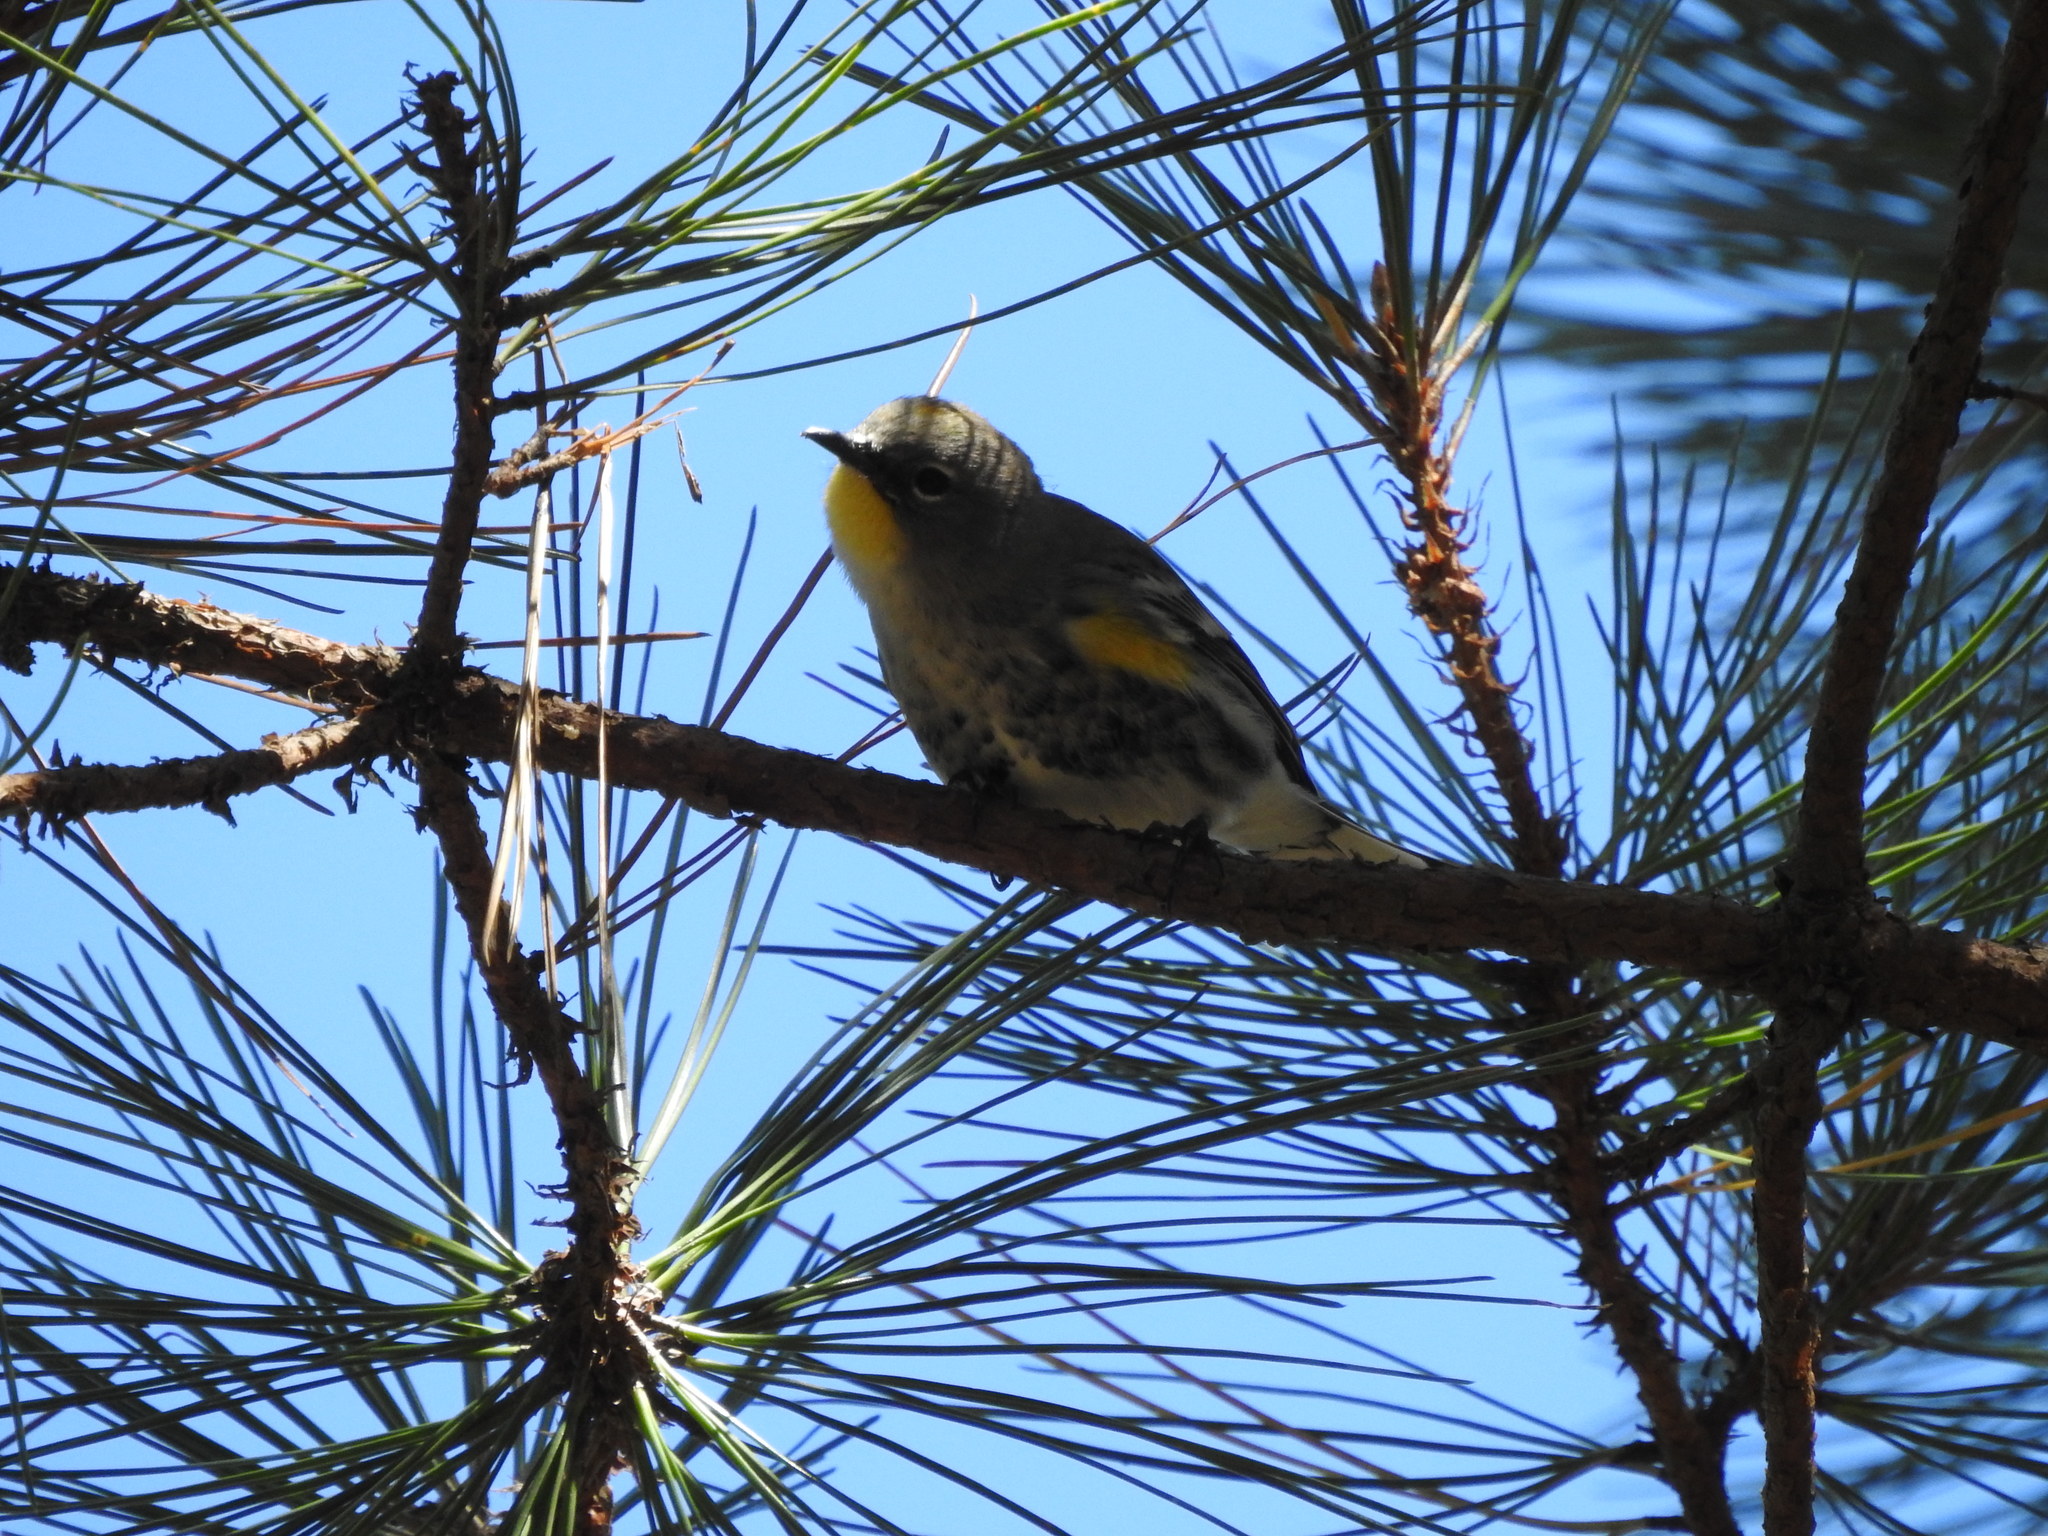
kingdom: Animalia
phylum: Chordata
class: Aves
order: Passeriformes
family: Parulidae
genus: Setophaga
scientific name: Setophaga coronata
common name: Myrtle warbler
